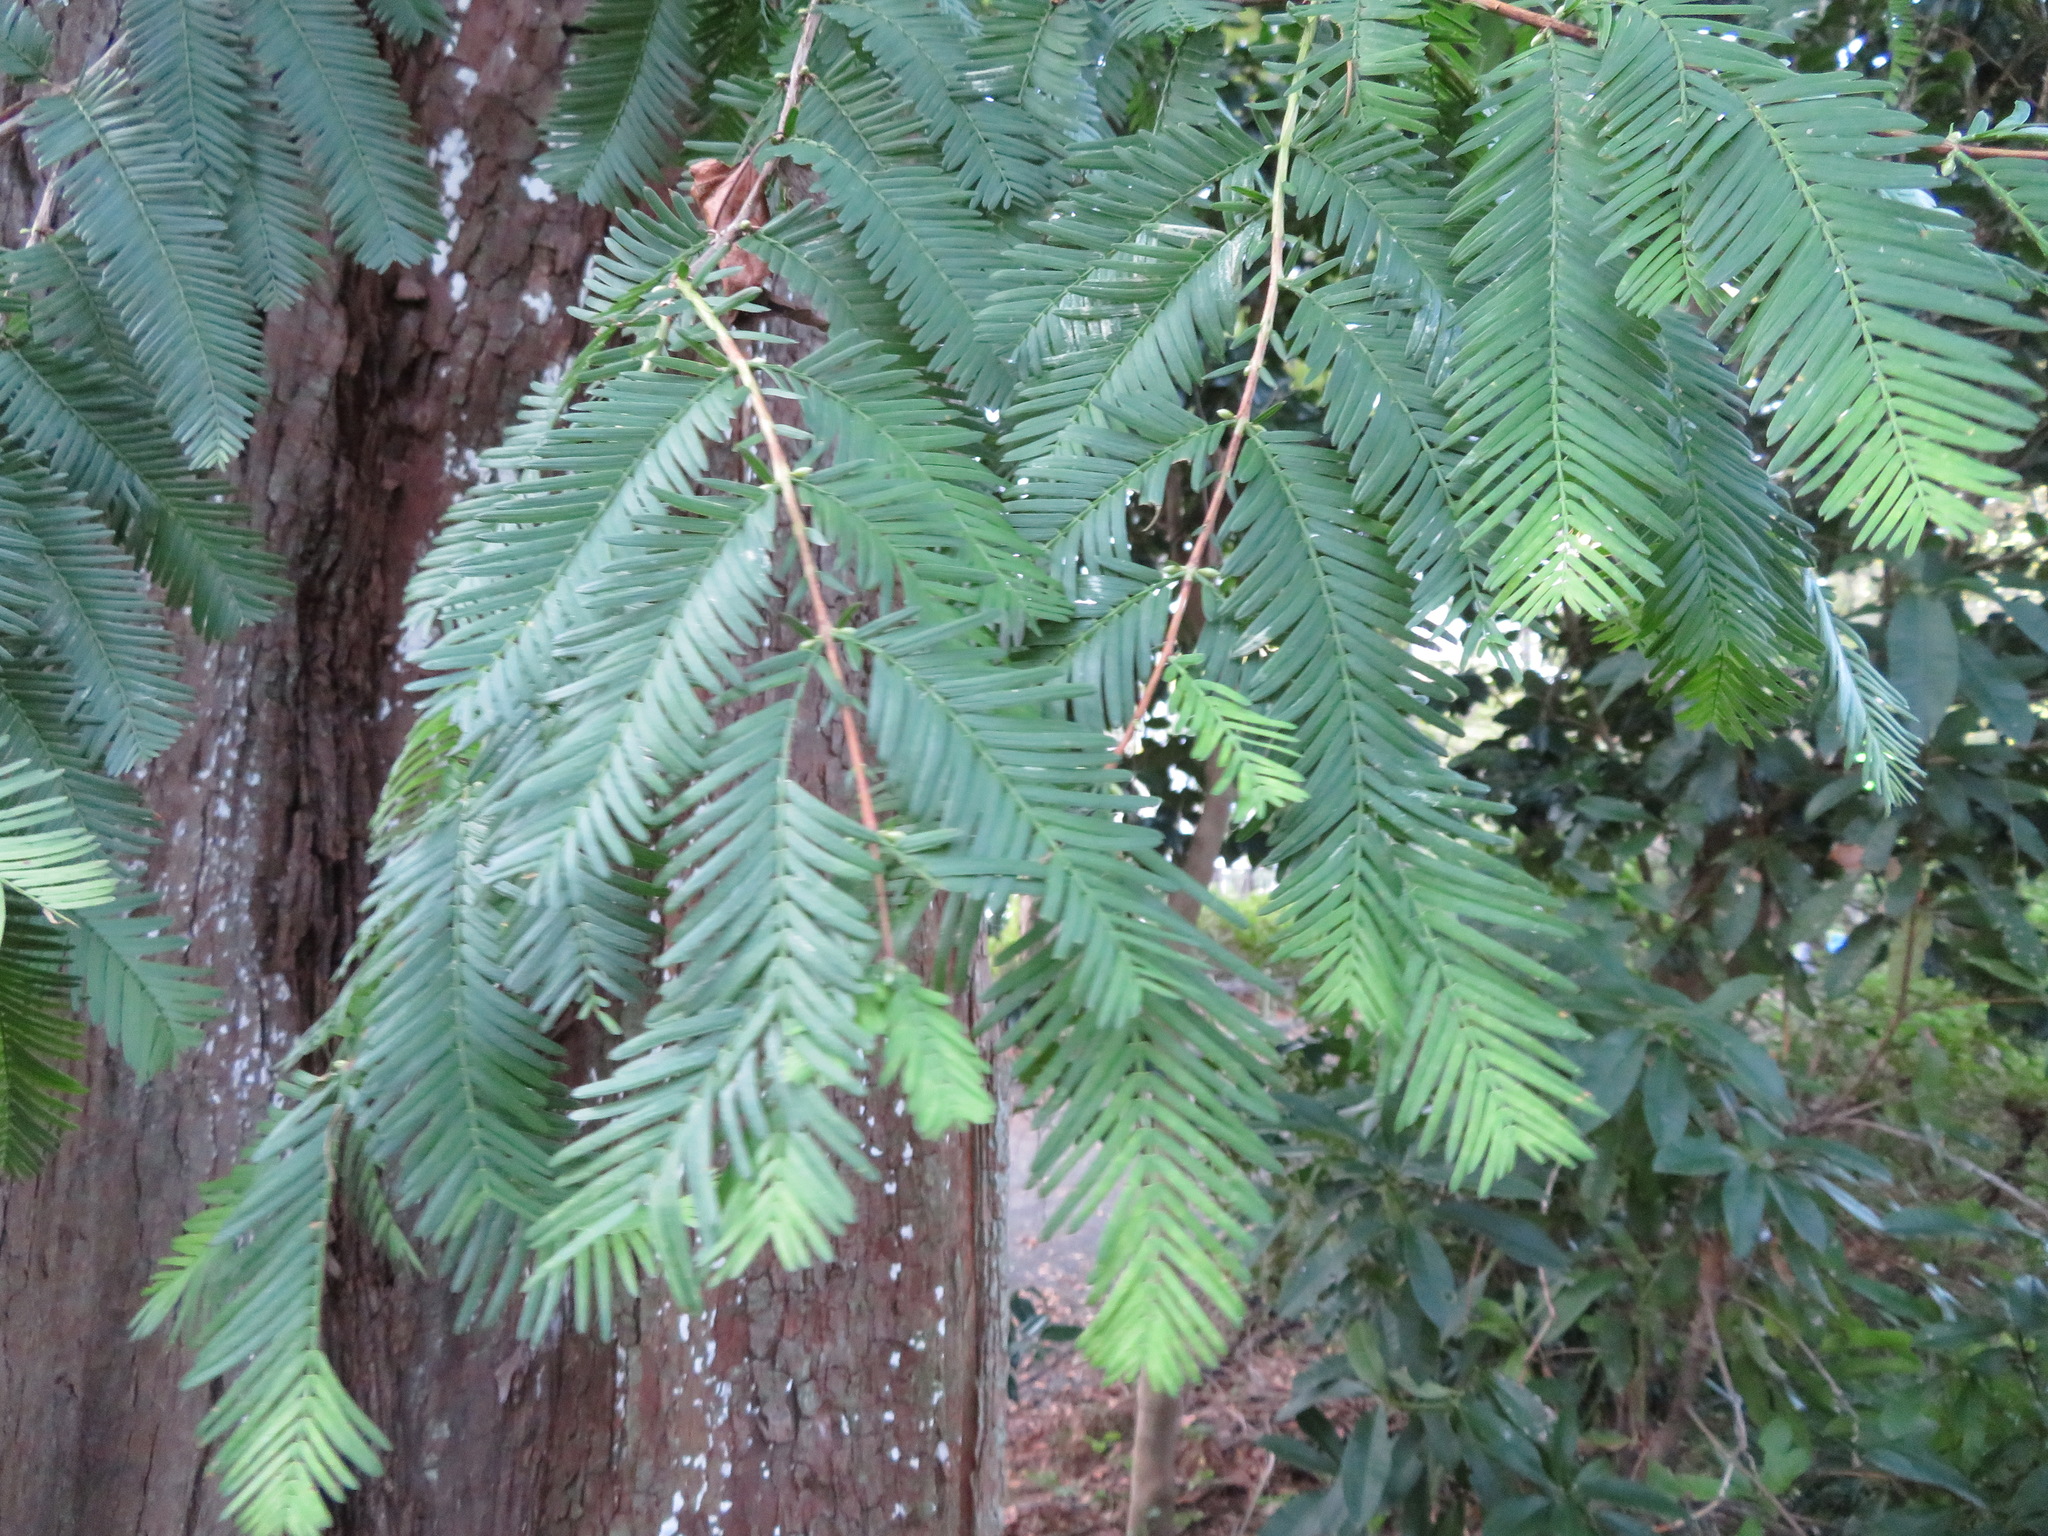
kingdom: Plantae
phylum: Tracheophyta
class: Pinopsida
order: Pinales
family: Cupressaceae
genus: Metasequoia
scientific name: Metasequoia glyptostroboides
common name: Dawn redwood
